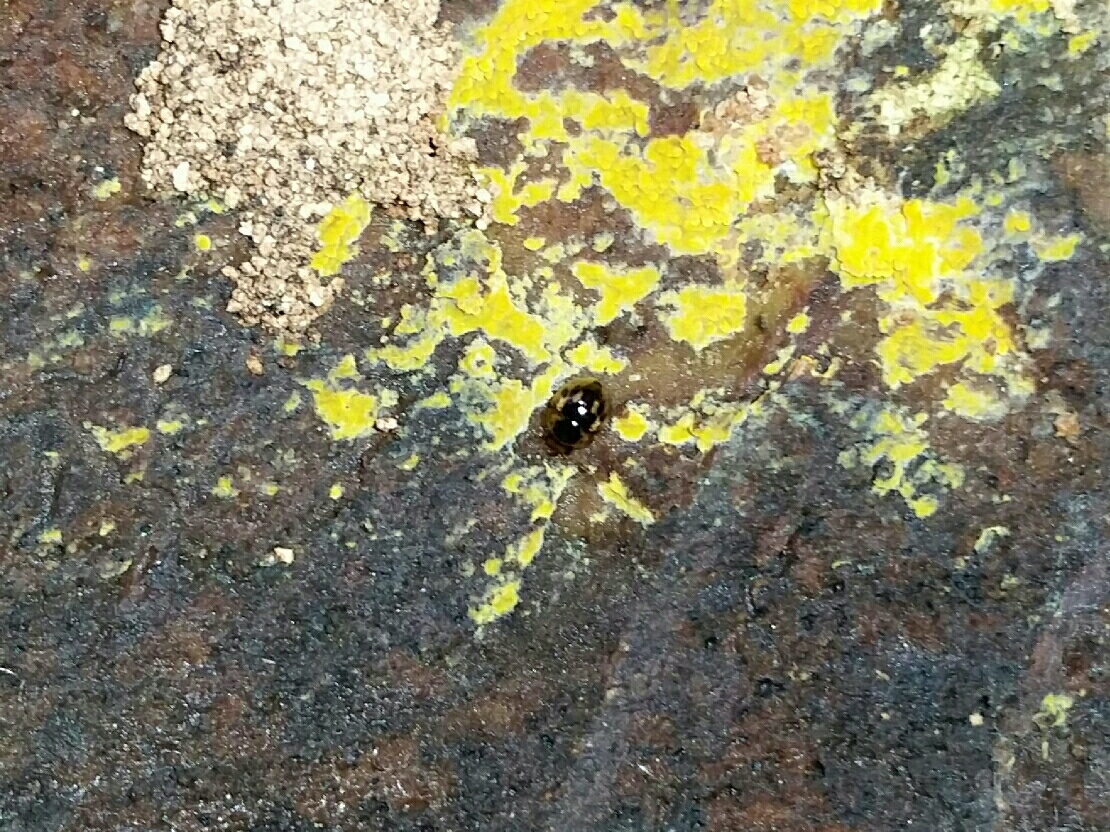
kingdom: Animalia
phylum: Arthropoda
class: Insecta
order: Coleoptera
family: Leiodidae
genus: Agathidium
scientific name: Agathidium maculosum
